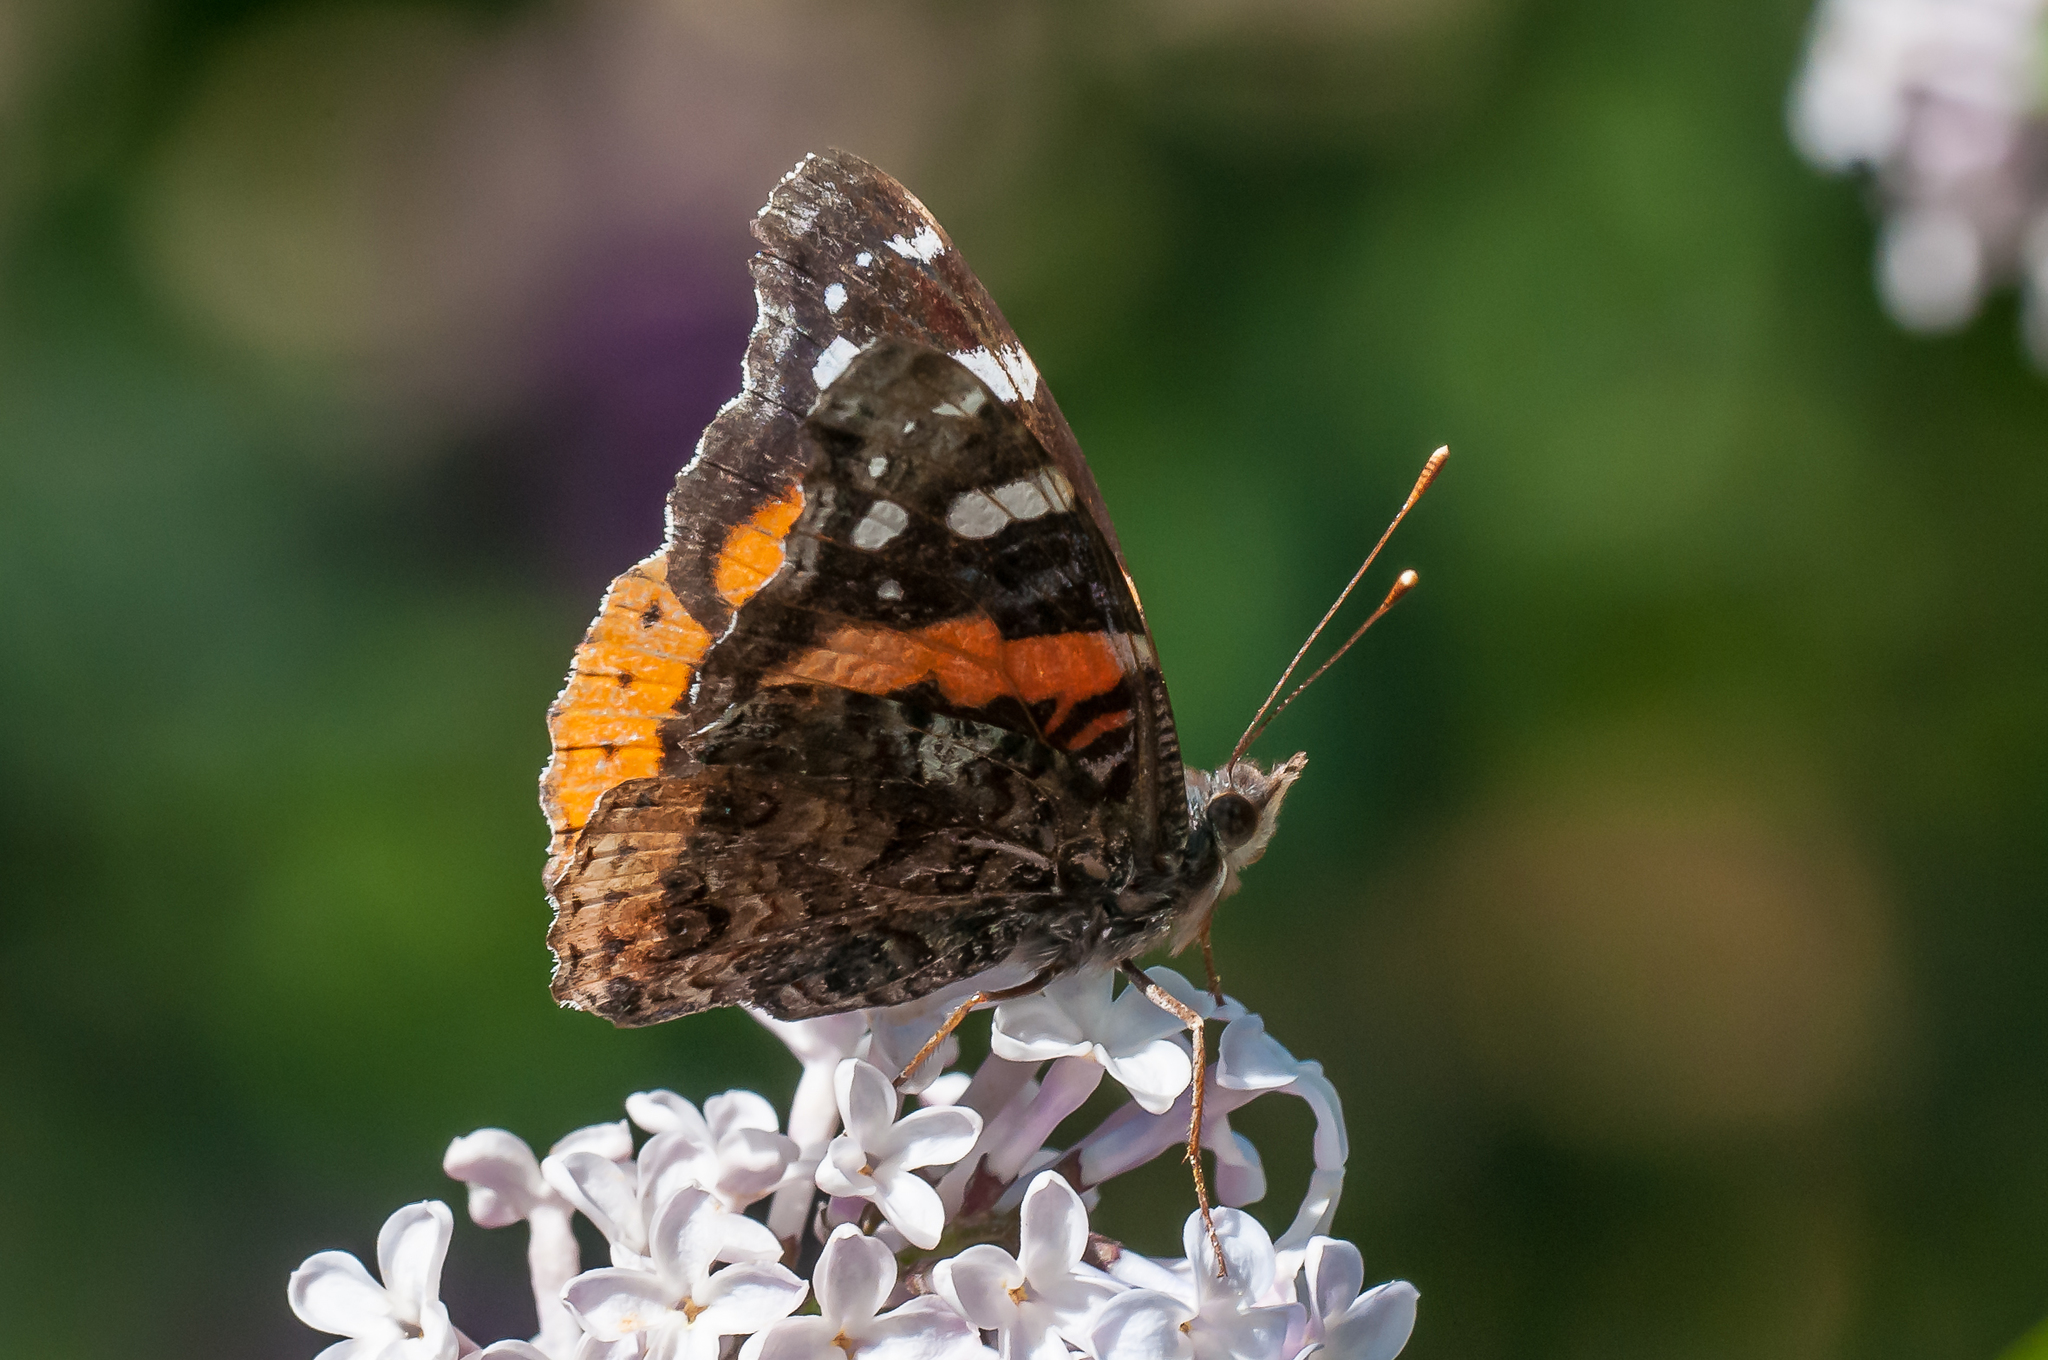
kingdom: Animalia
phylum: Arthropoda
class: Insecta
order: Lepidoptera
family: Nymphalidae
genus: Vanessa
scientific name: Vanessa atalanta
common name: Red admiral
